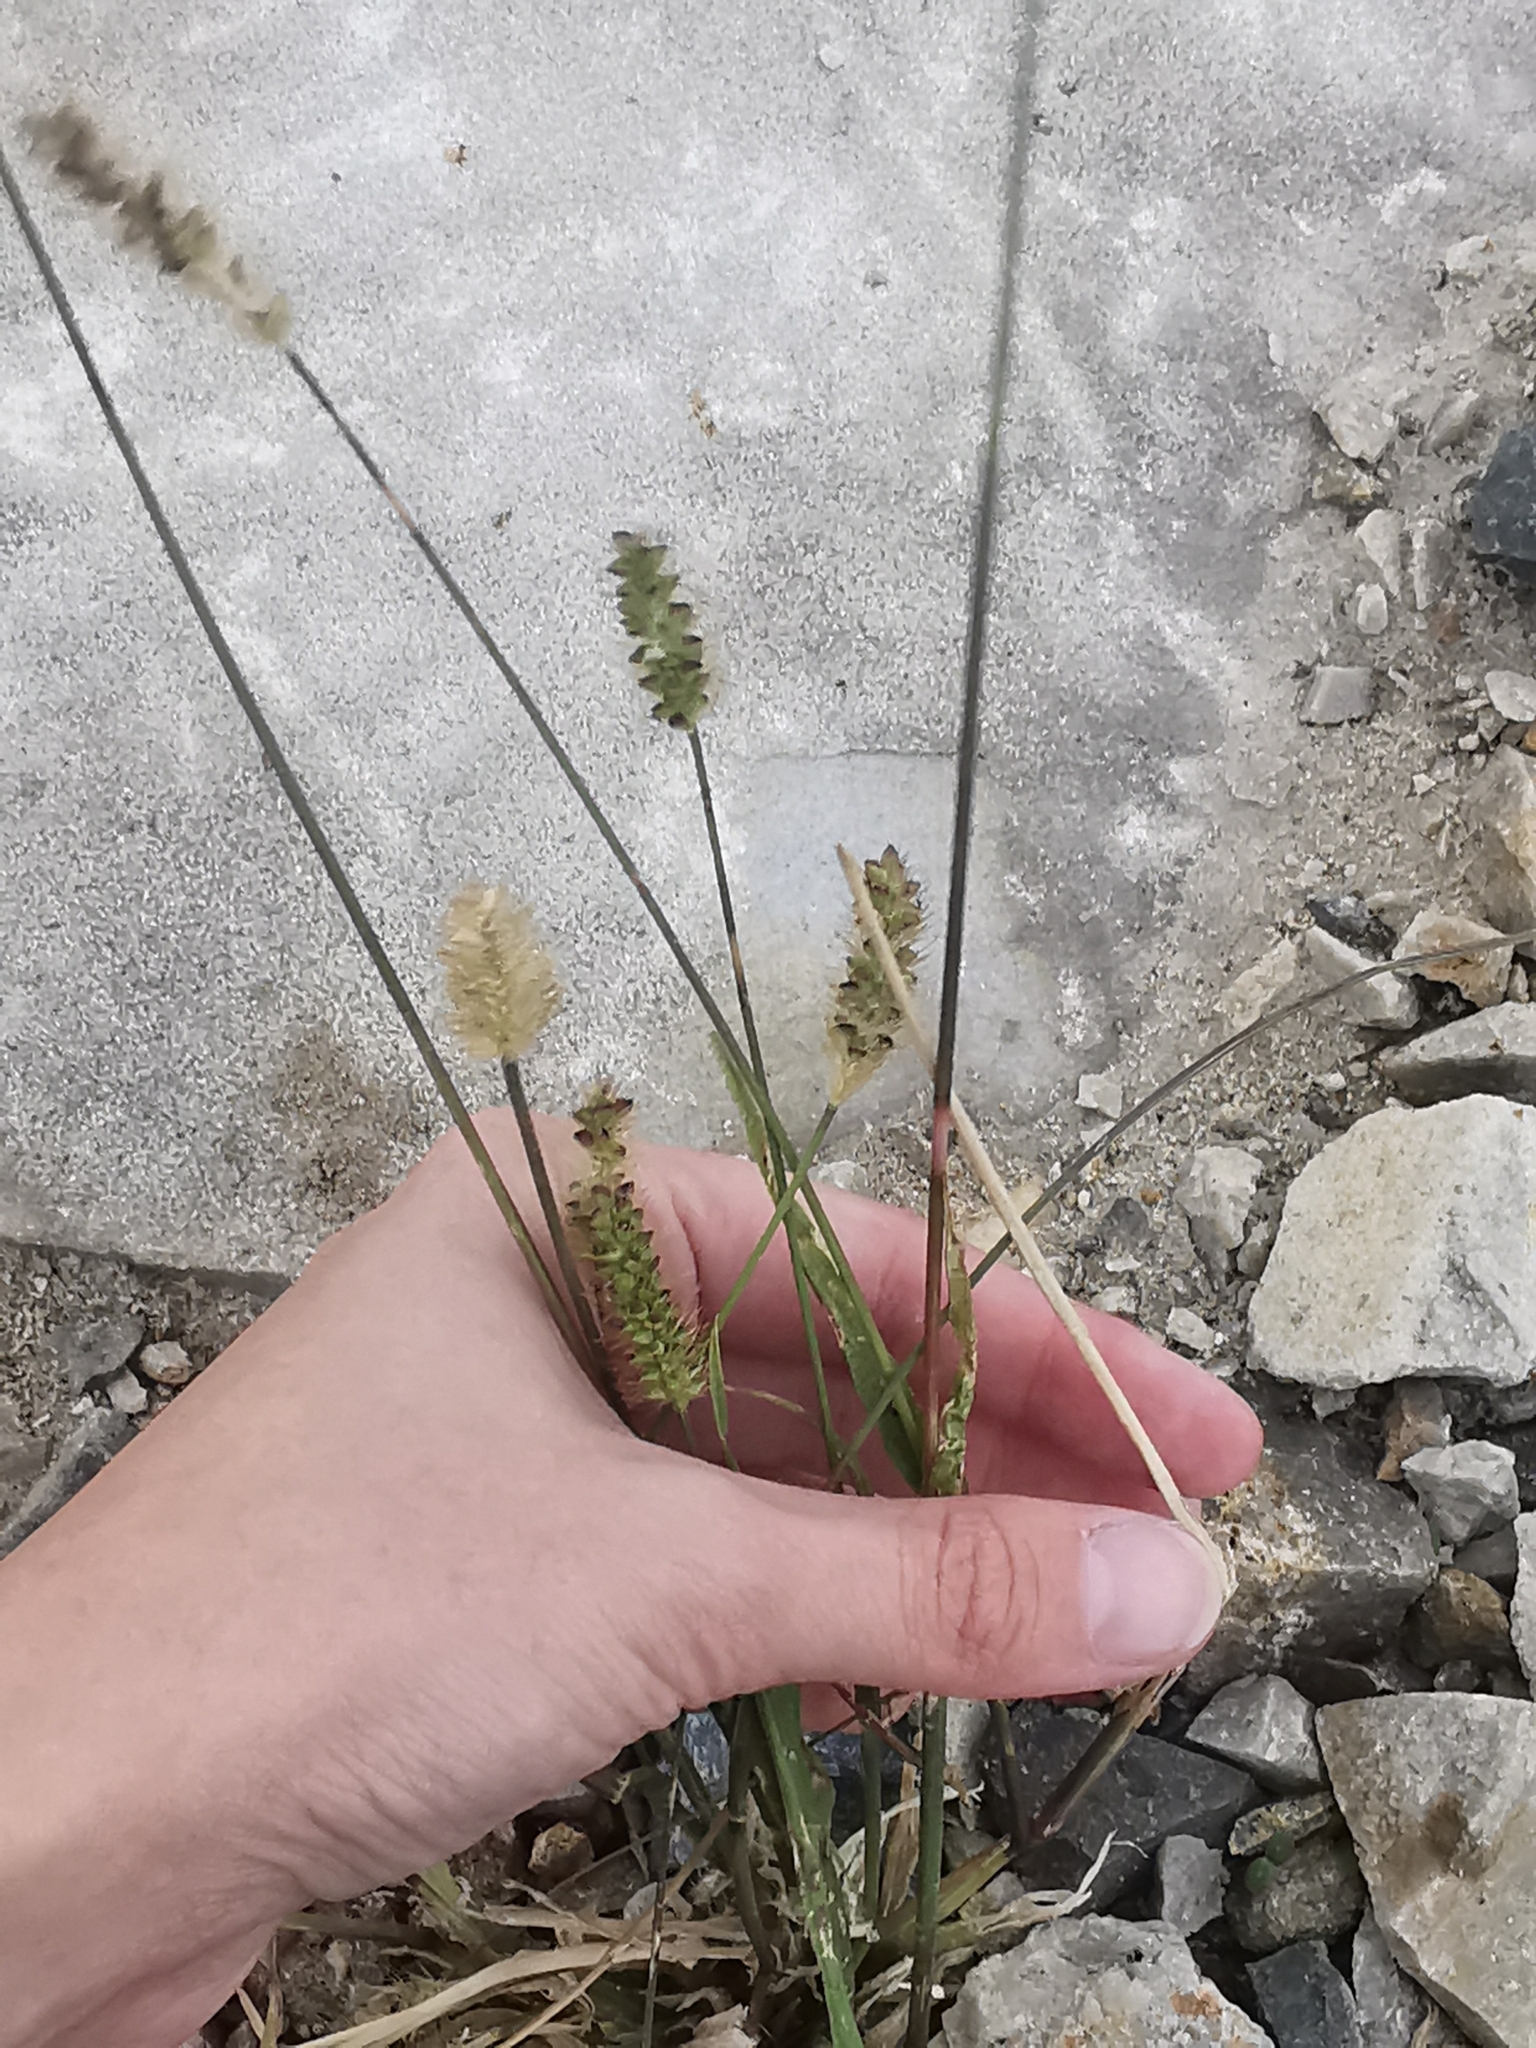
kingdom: Plantae
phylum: Tracheophyta
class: Liliopsida
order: Poales
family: Poaceae
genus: Setaria
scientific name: Setaria pumila
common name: Yellow bristle-grass
